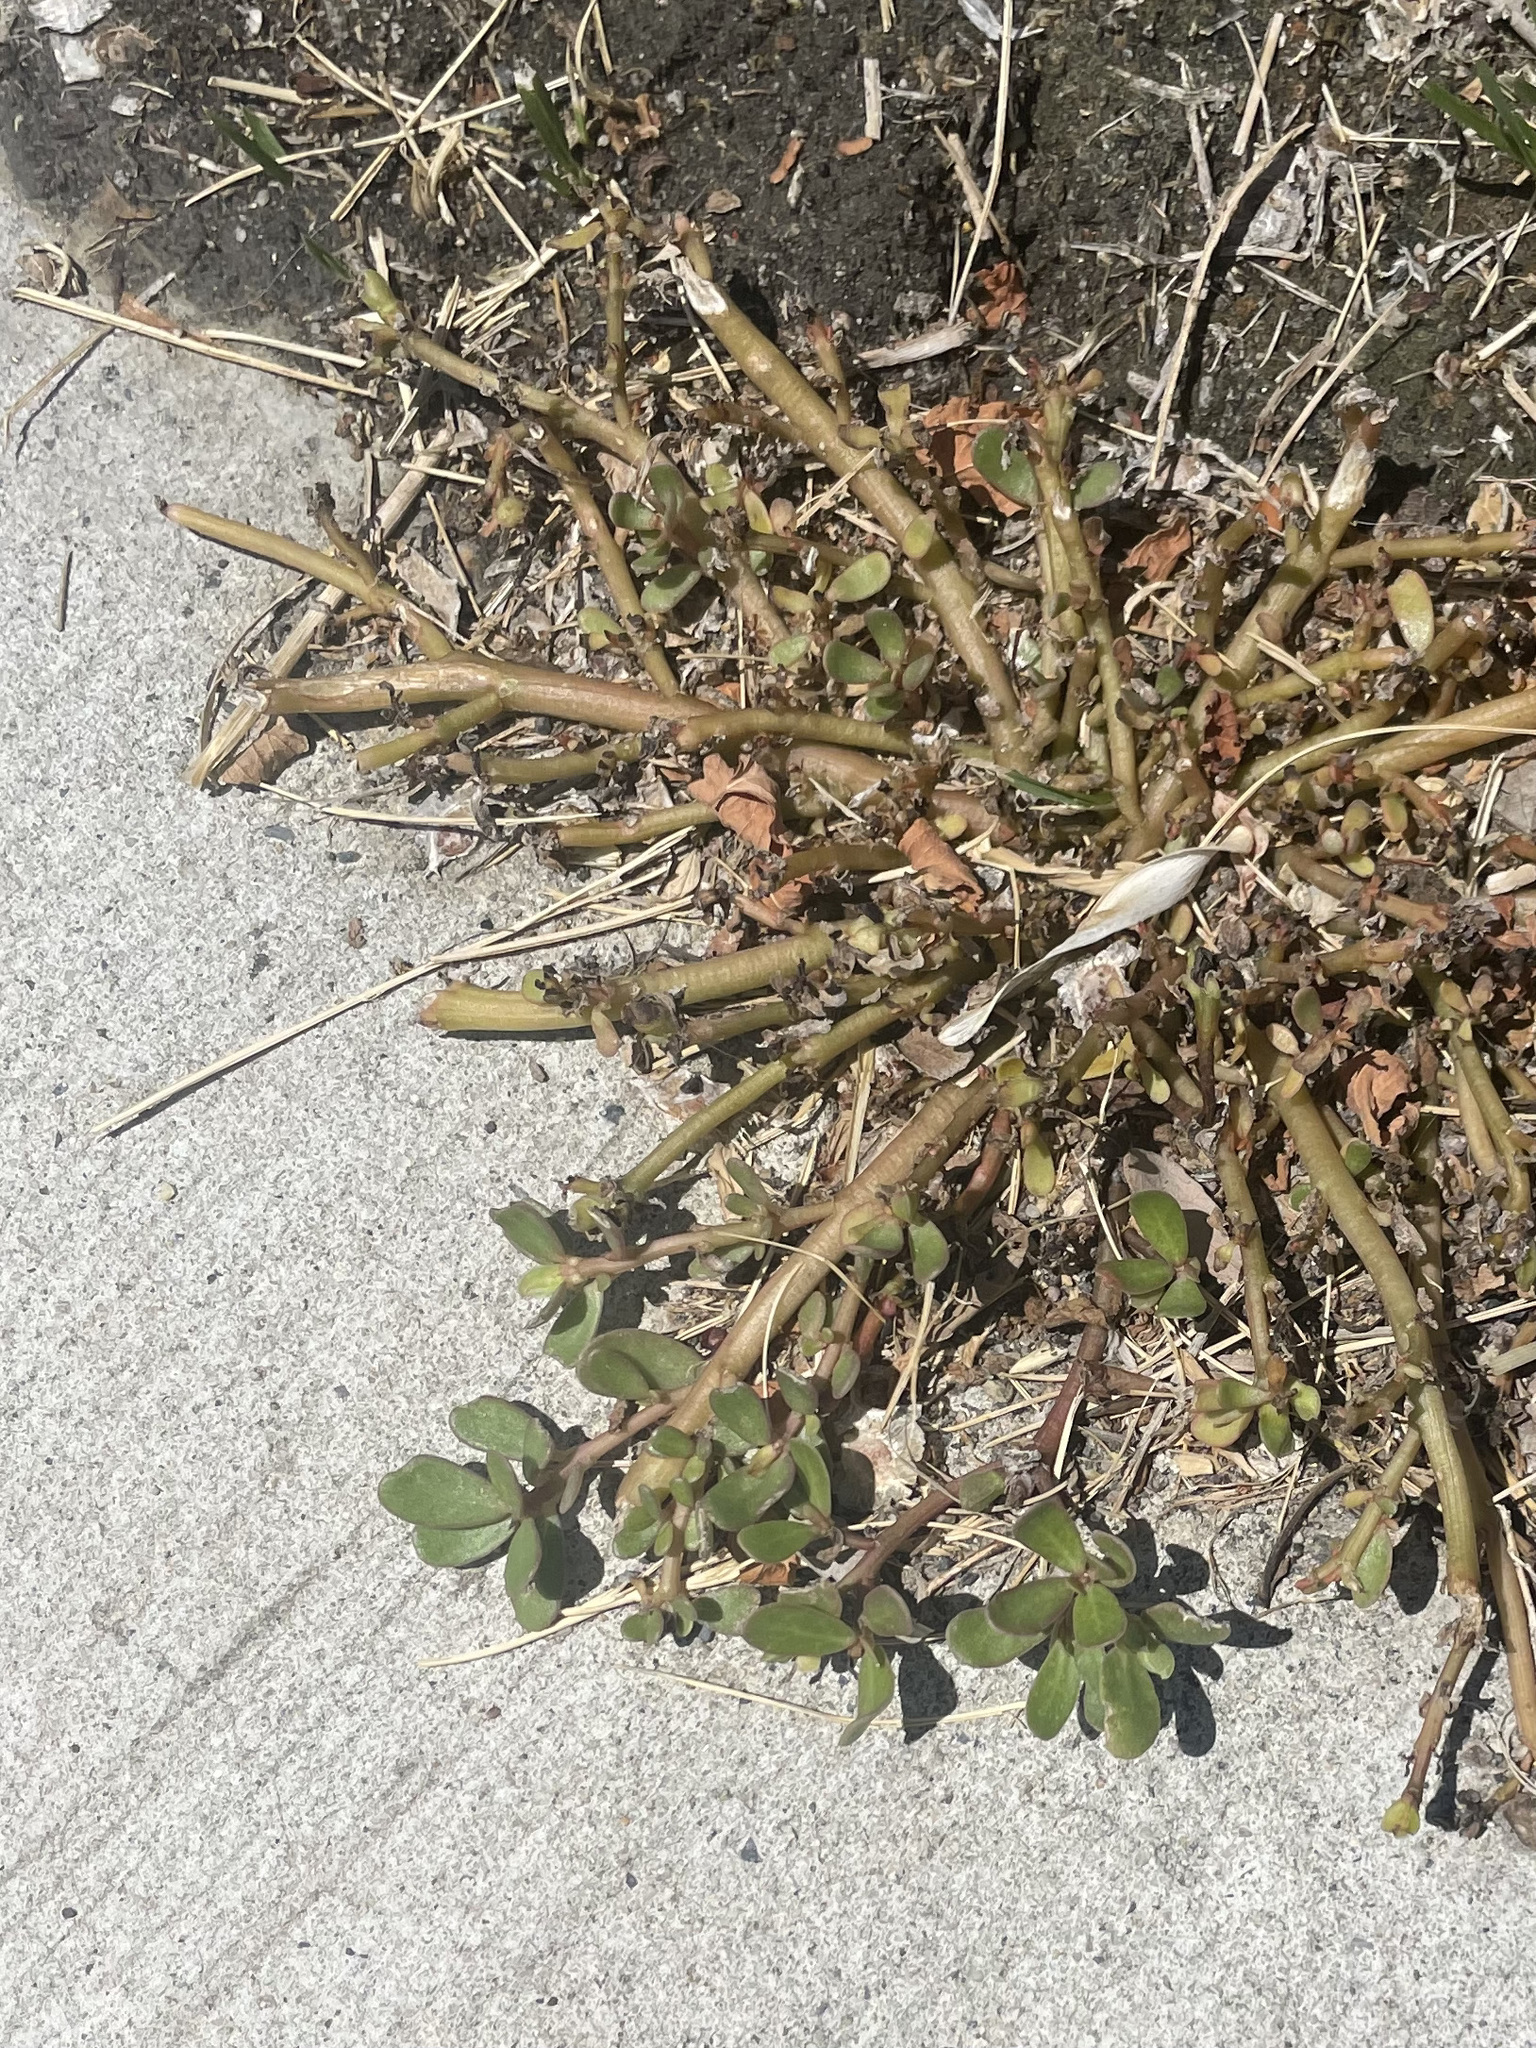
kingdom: Plantae
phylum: Tracheophyta
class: Magnoliopsida
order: Caryophyllales
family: Portulacaceae
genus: Portulaca
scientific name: Portulaca oleracea
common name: Common purslane
